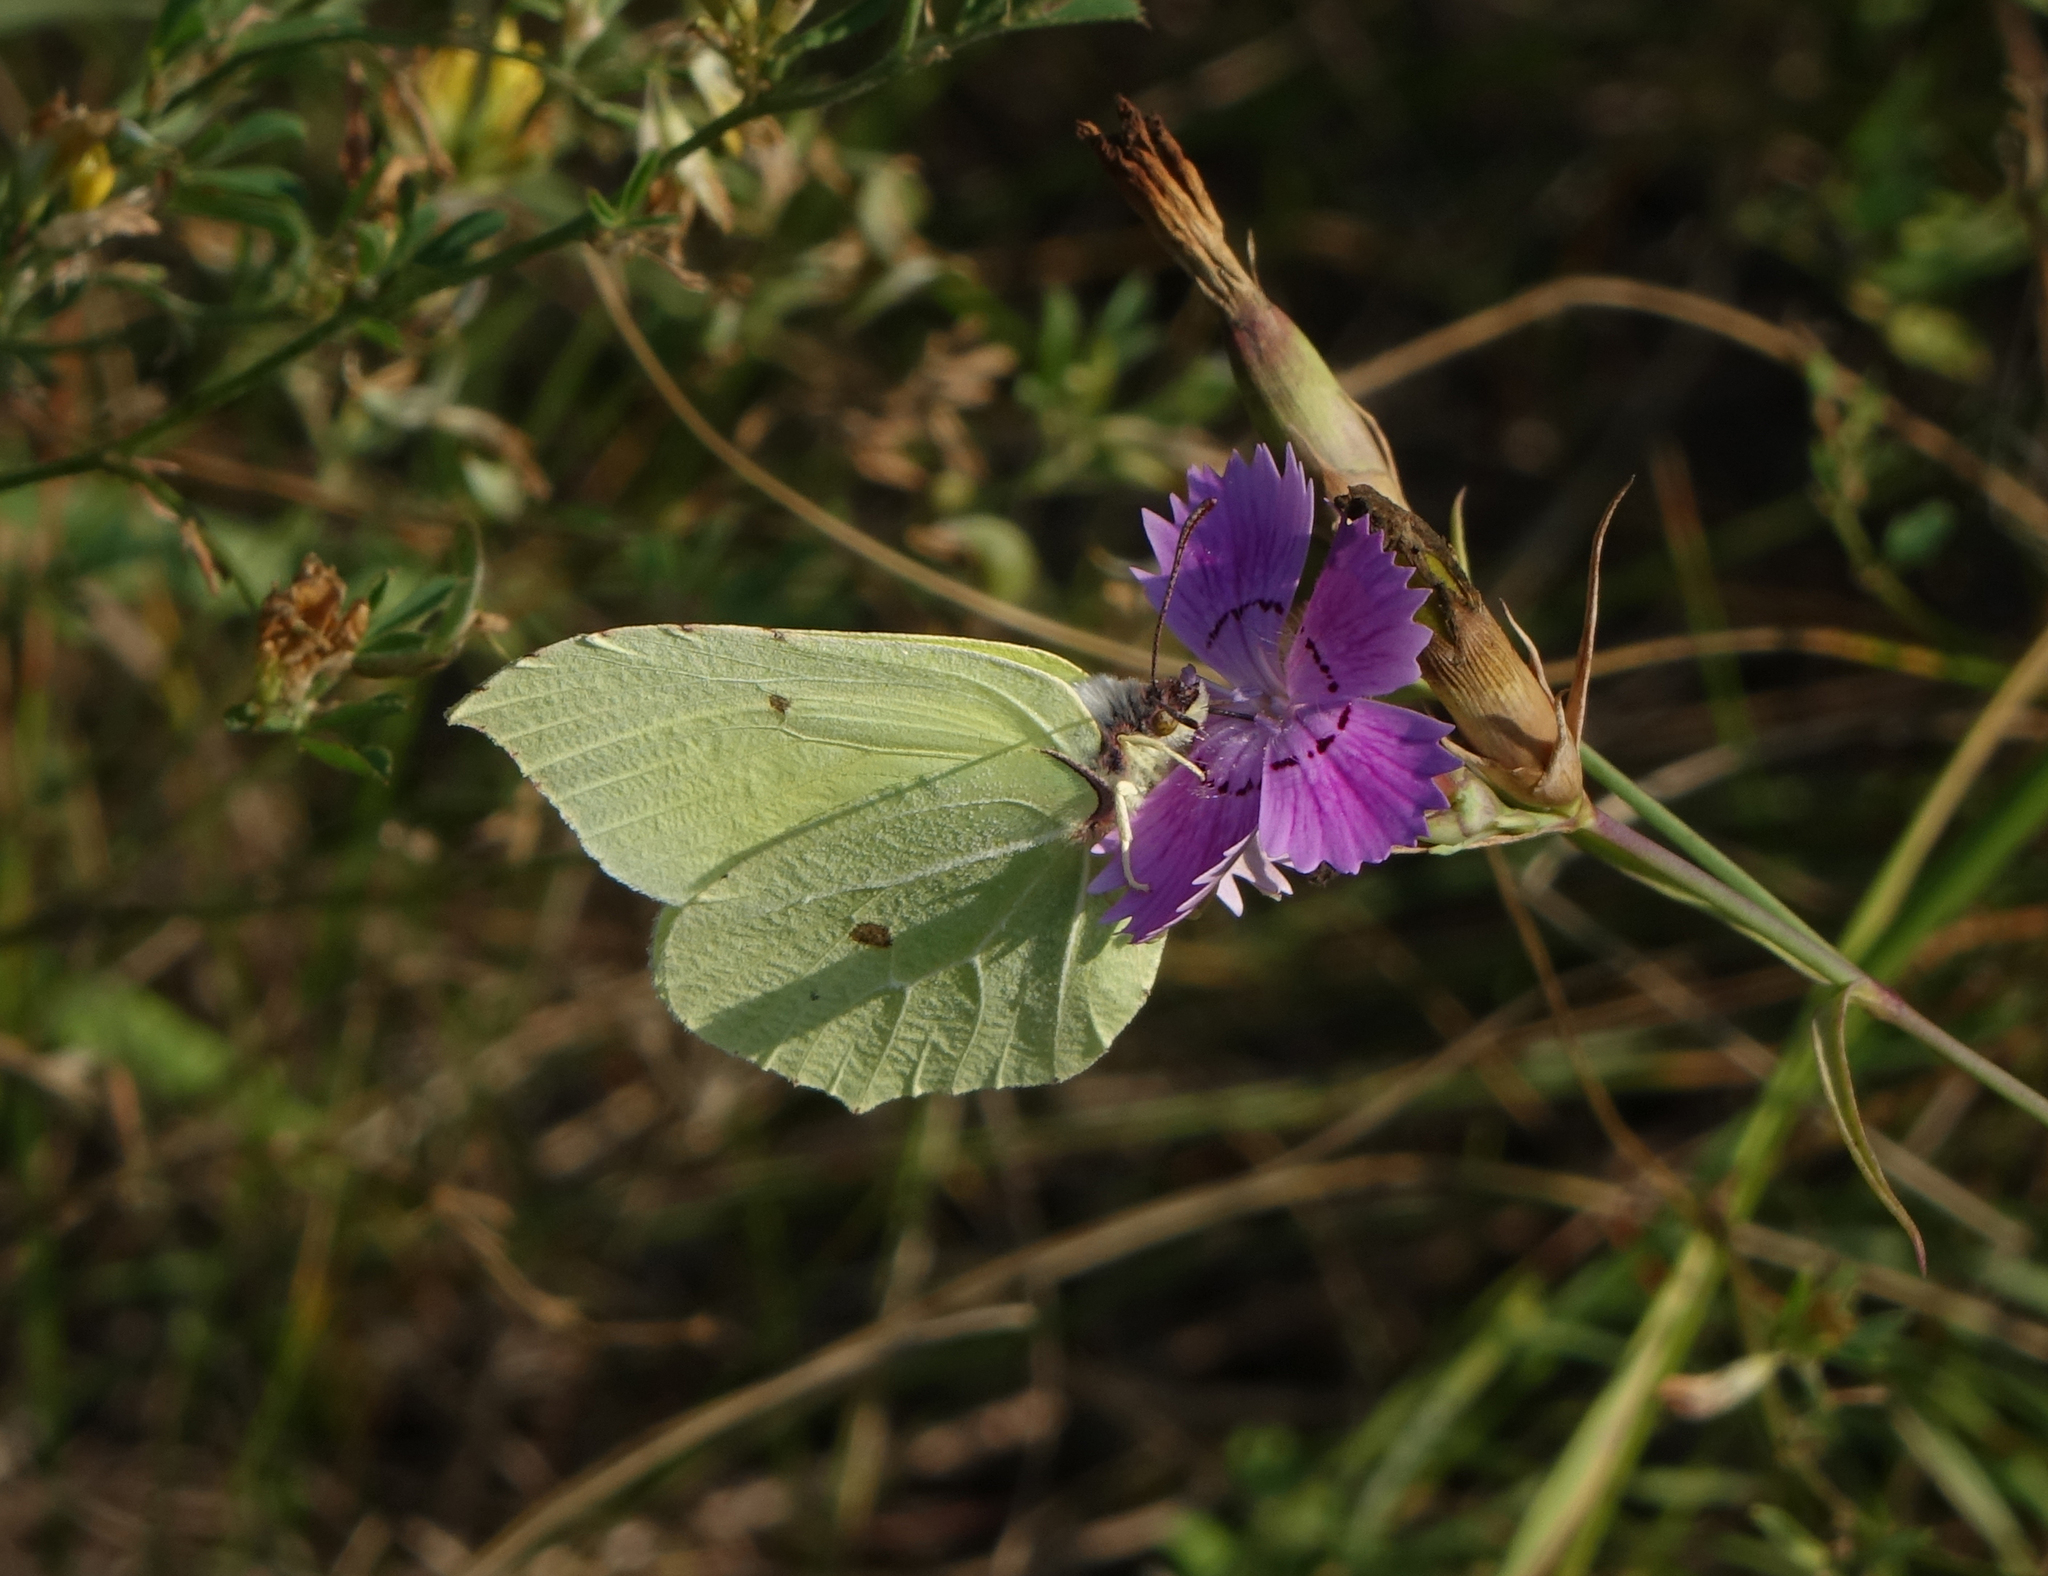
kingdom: Animalia
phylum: Arthropoda
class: Insecta
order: Lepidoptera
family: Pieridae
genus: Gonepteryx
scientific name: Gonepteryx rhamni
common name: Brimstone
